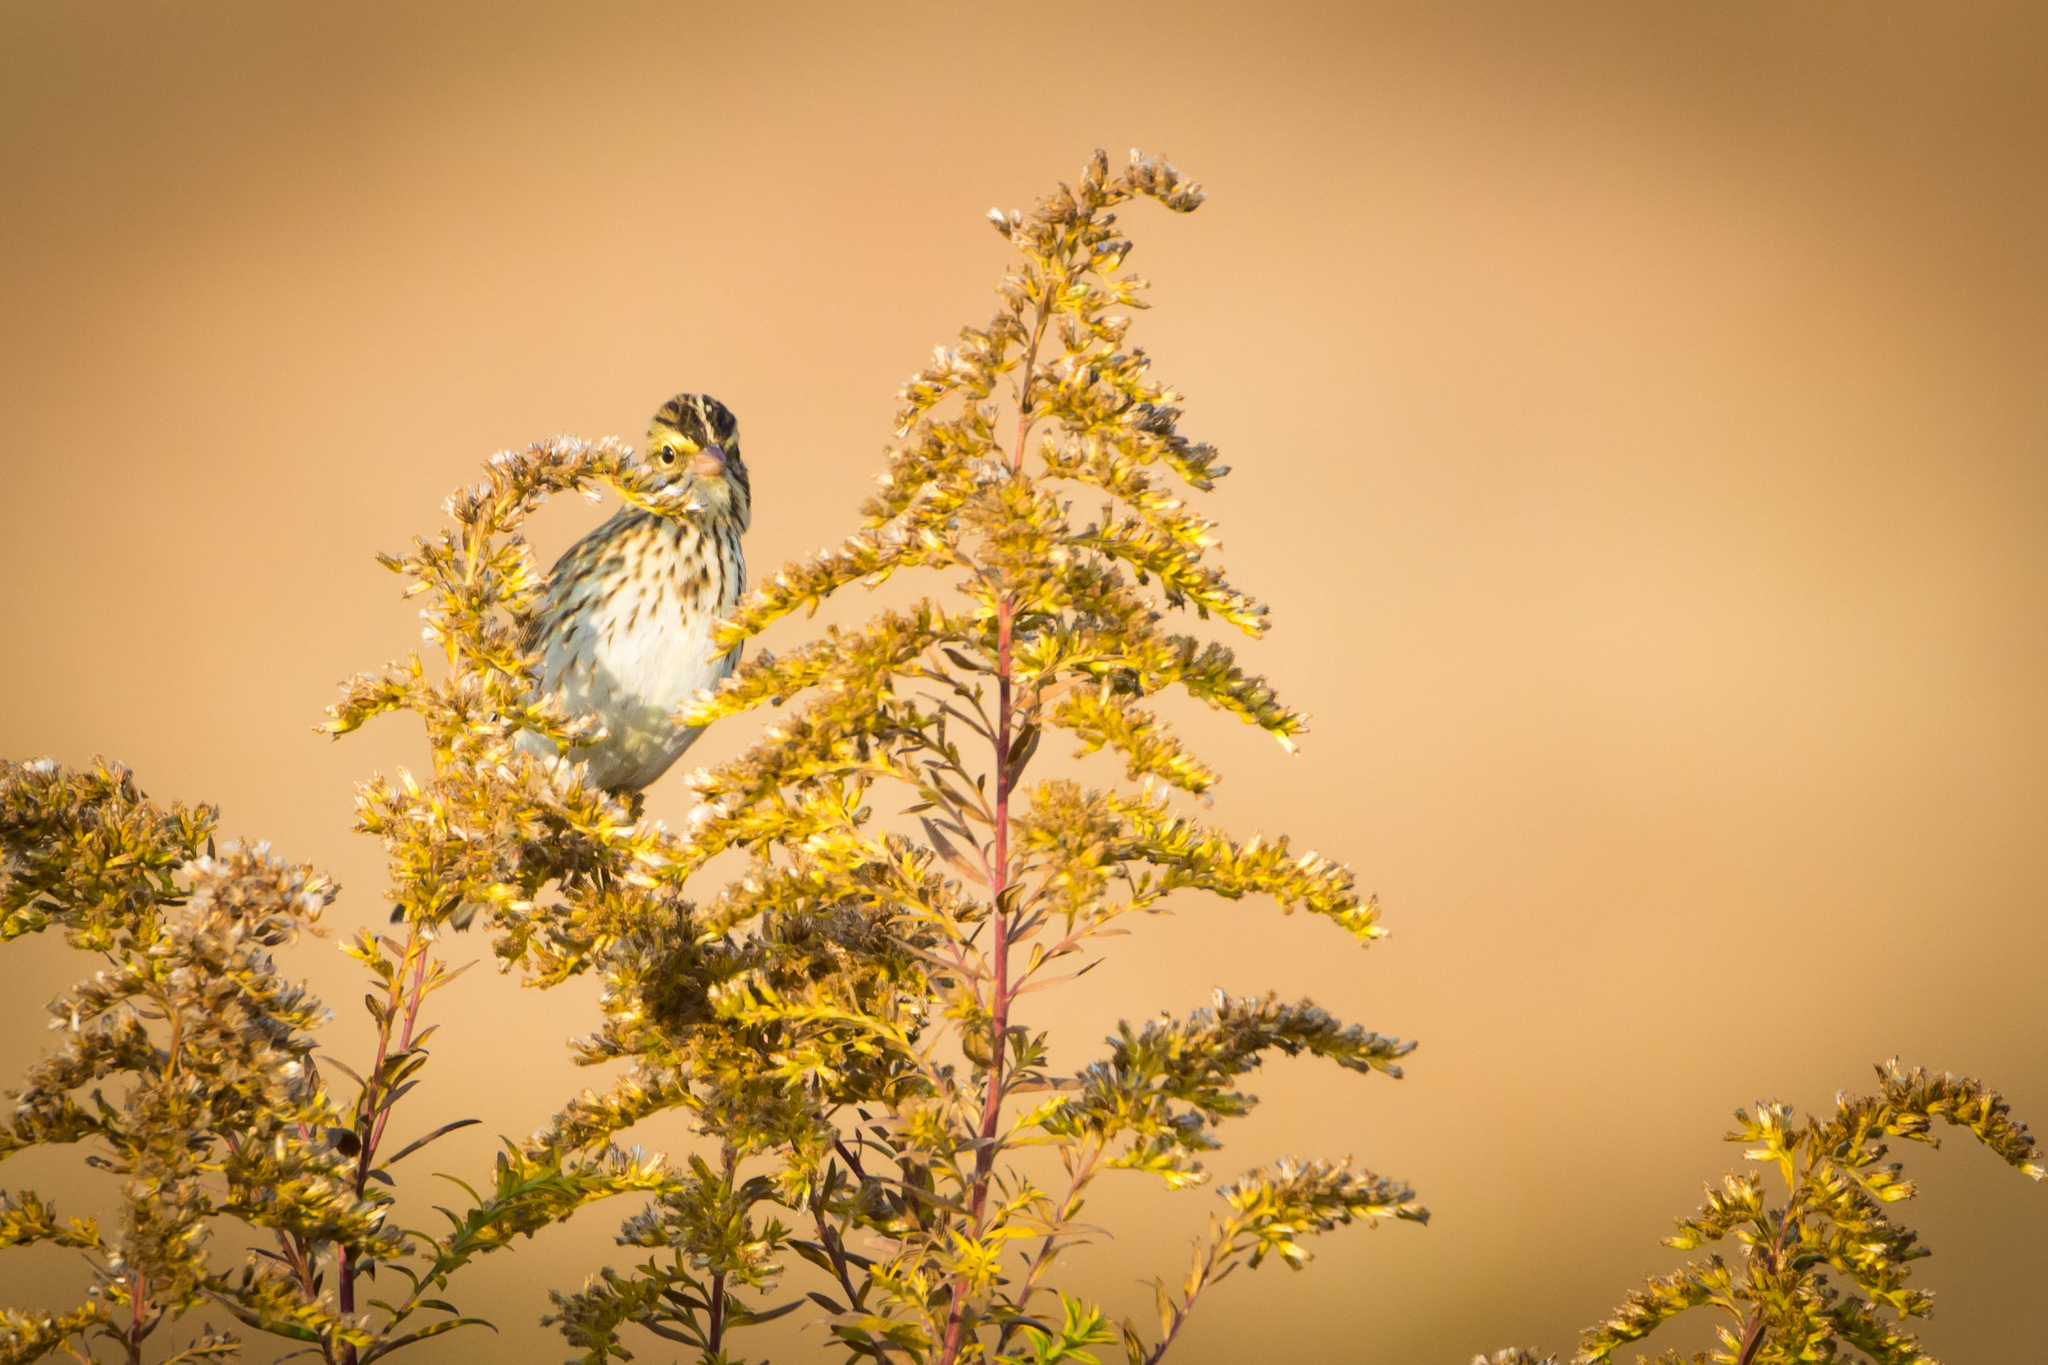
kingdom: Animalia
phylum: Chordata
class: Aves
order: Passeriformes
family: Passerellidae
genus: Passerculus
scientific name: Passerculus sandwichensis
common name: Savannah sparrow
